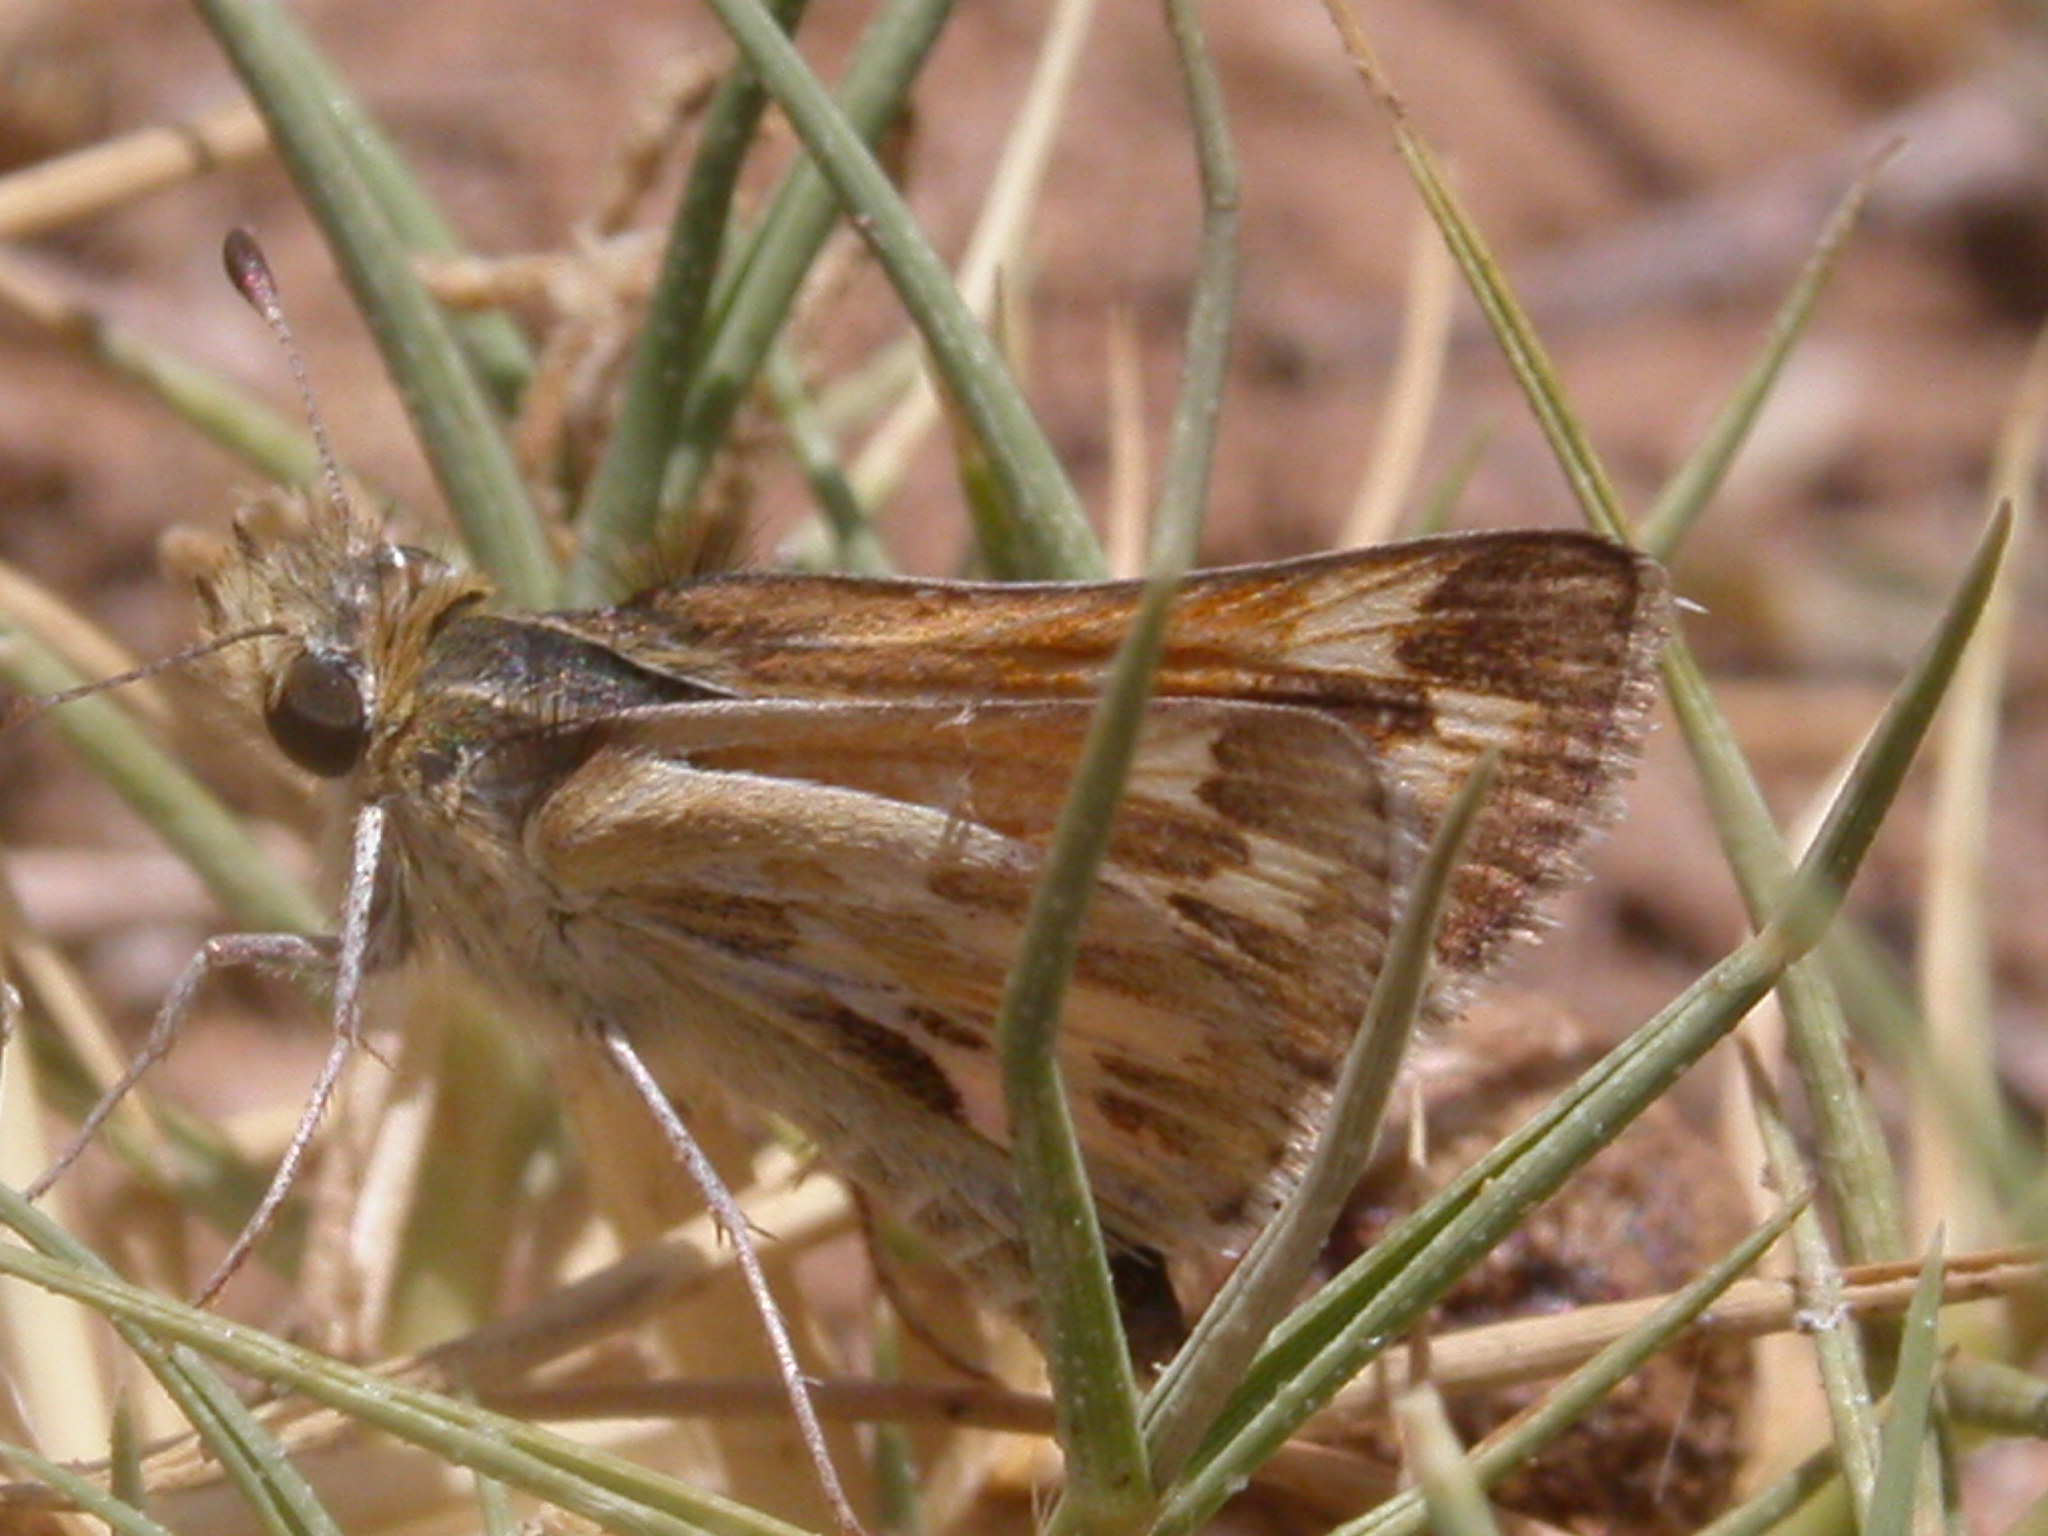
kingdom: Animalia
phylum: Arthropoda
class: Insecta
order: Lepidoptera
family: Hesperiidae
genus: Polites
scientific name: Polites sabuleti
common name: Sandhill skipper
